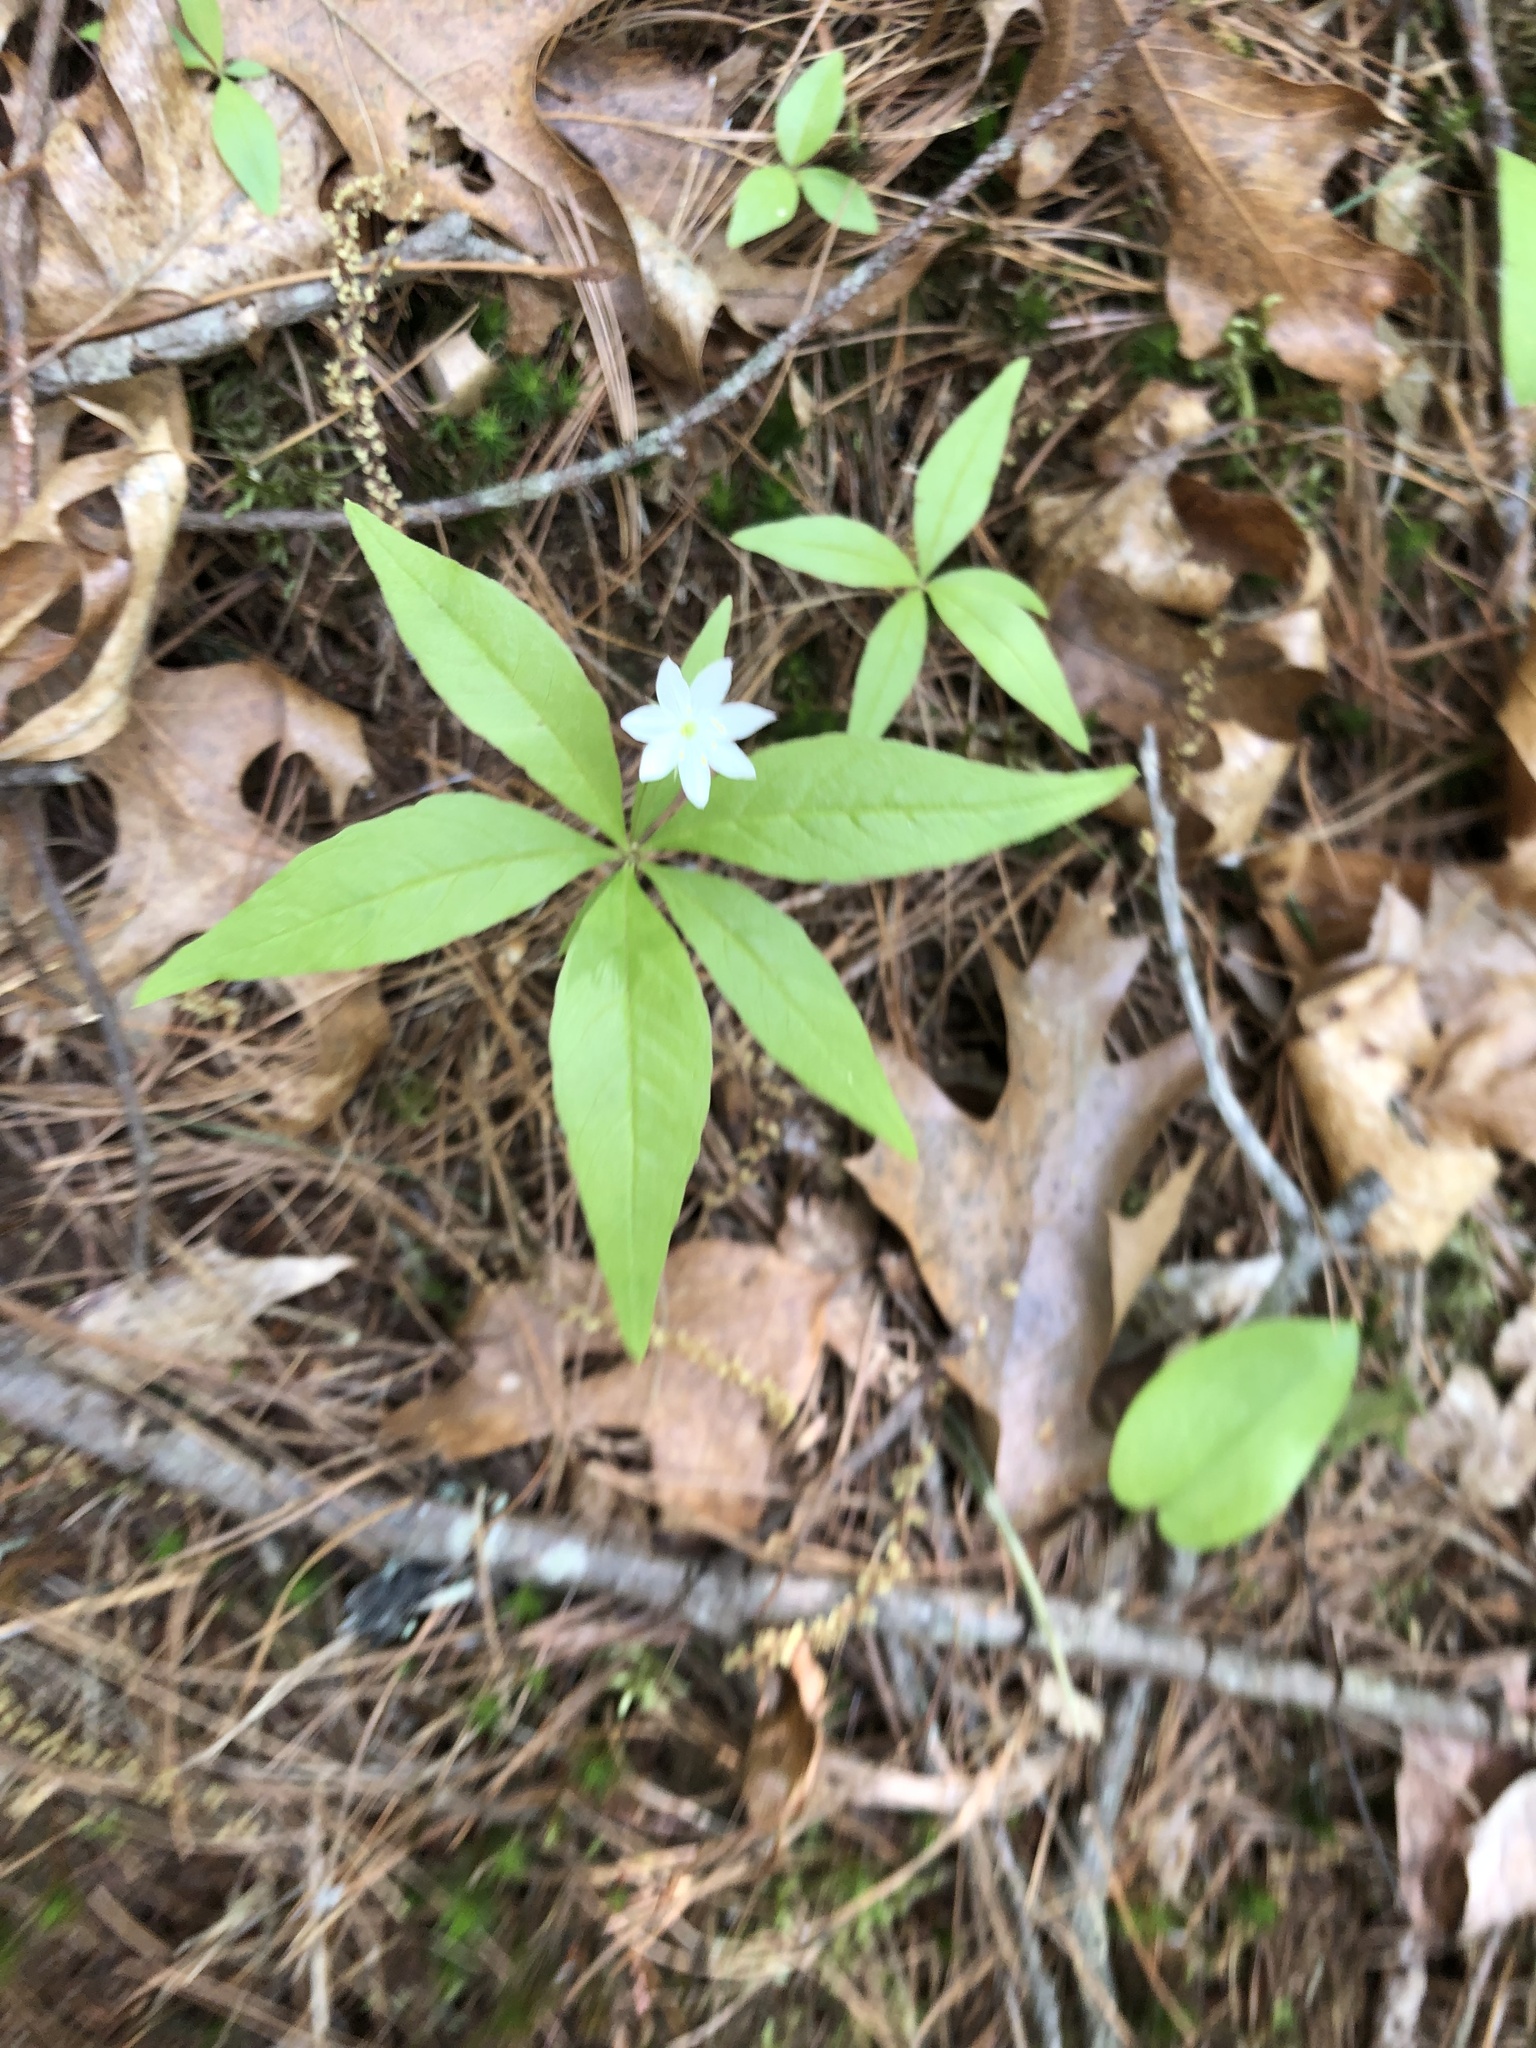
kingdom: Plantae
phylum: Tracheophyta
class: Magnoliopsida
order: Ericales
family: Primulaceae
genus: Lysimachia
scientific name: Lysimachia borealis
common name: American starflower
